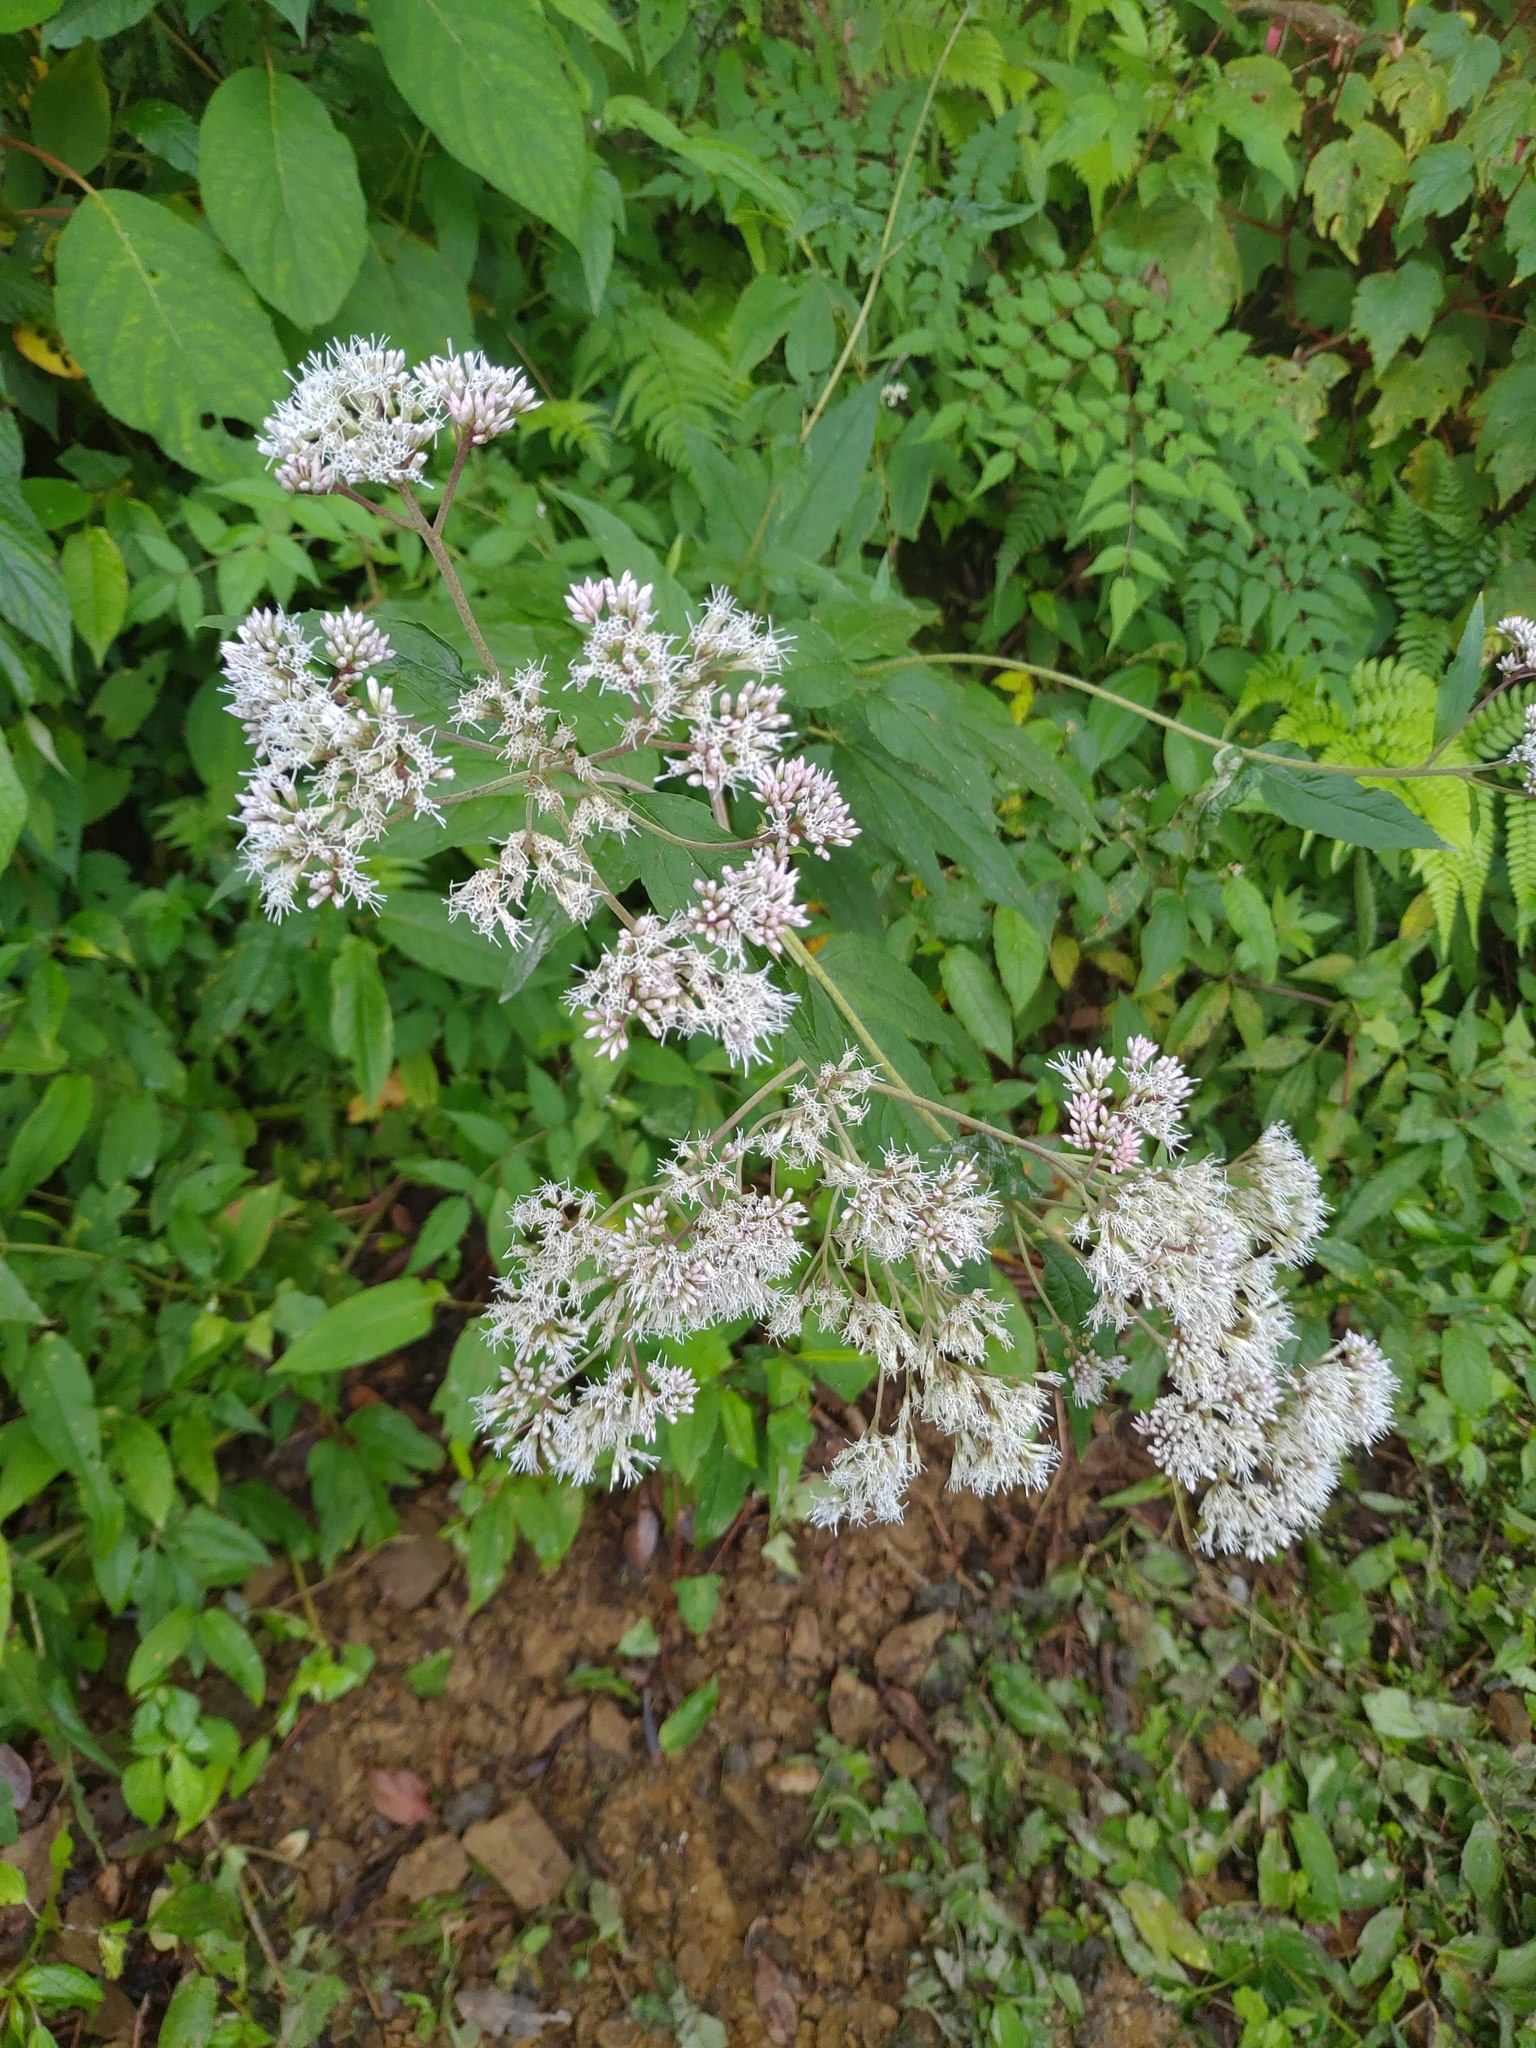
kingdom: Plantae
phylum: Tracheophyta
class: Magnoliopsida
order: Asterales
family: Asteraceae
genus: Eupatorium
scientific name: Eupatorium formosanum
